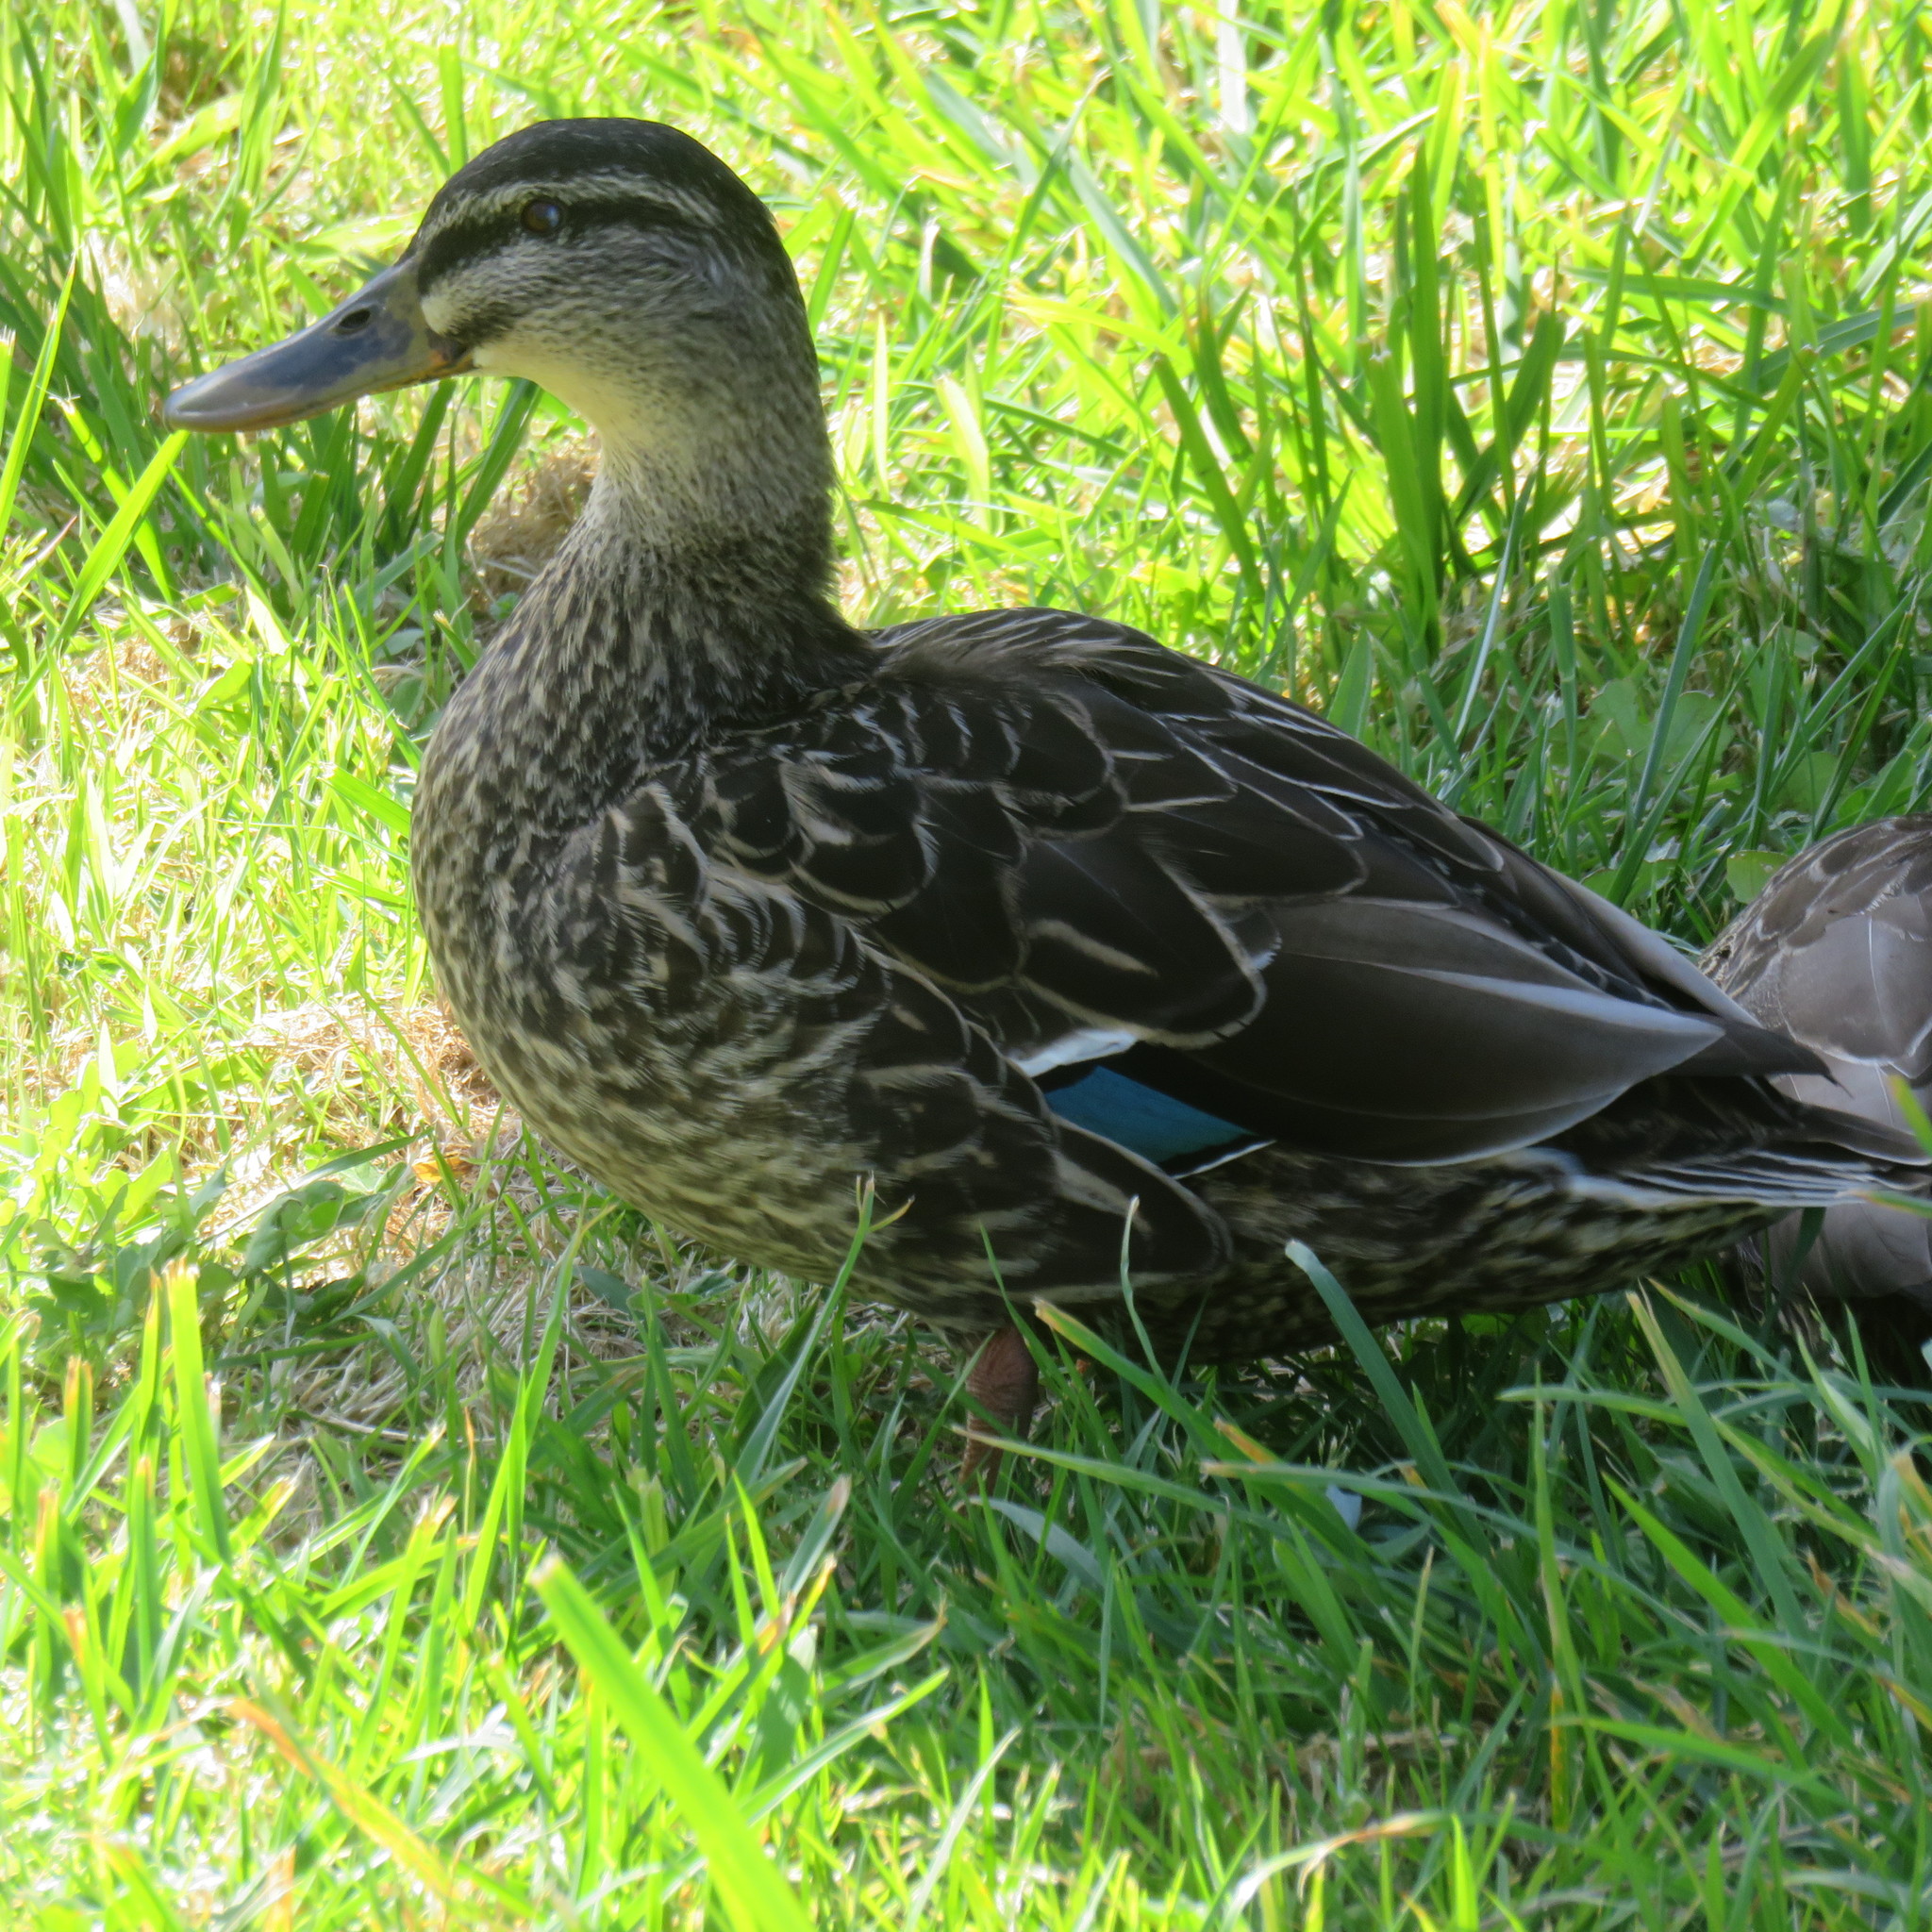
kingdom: Animalia
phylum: Chordata
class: Aves
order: Anseriformes
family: Anatidae
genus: Anas
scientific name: Anas
